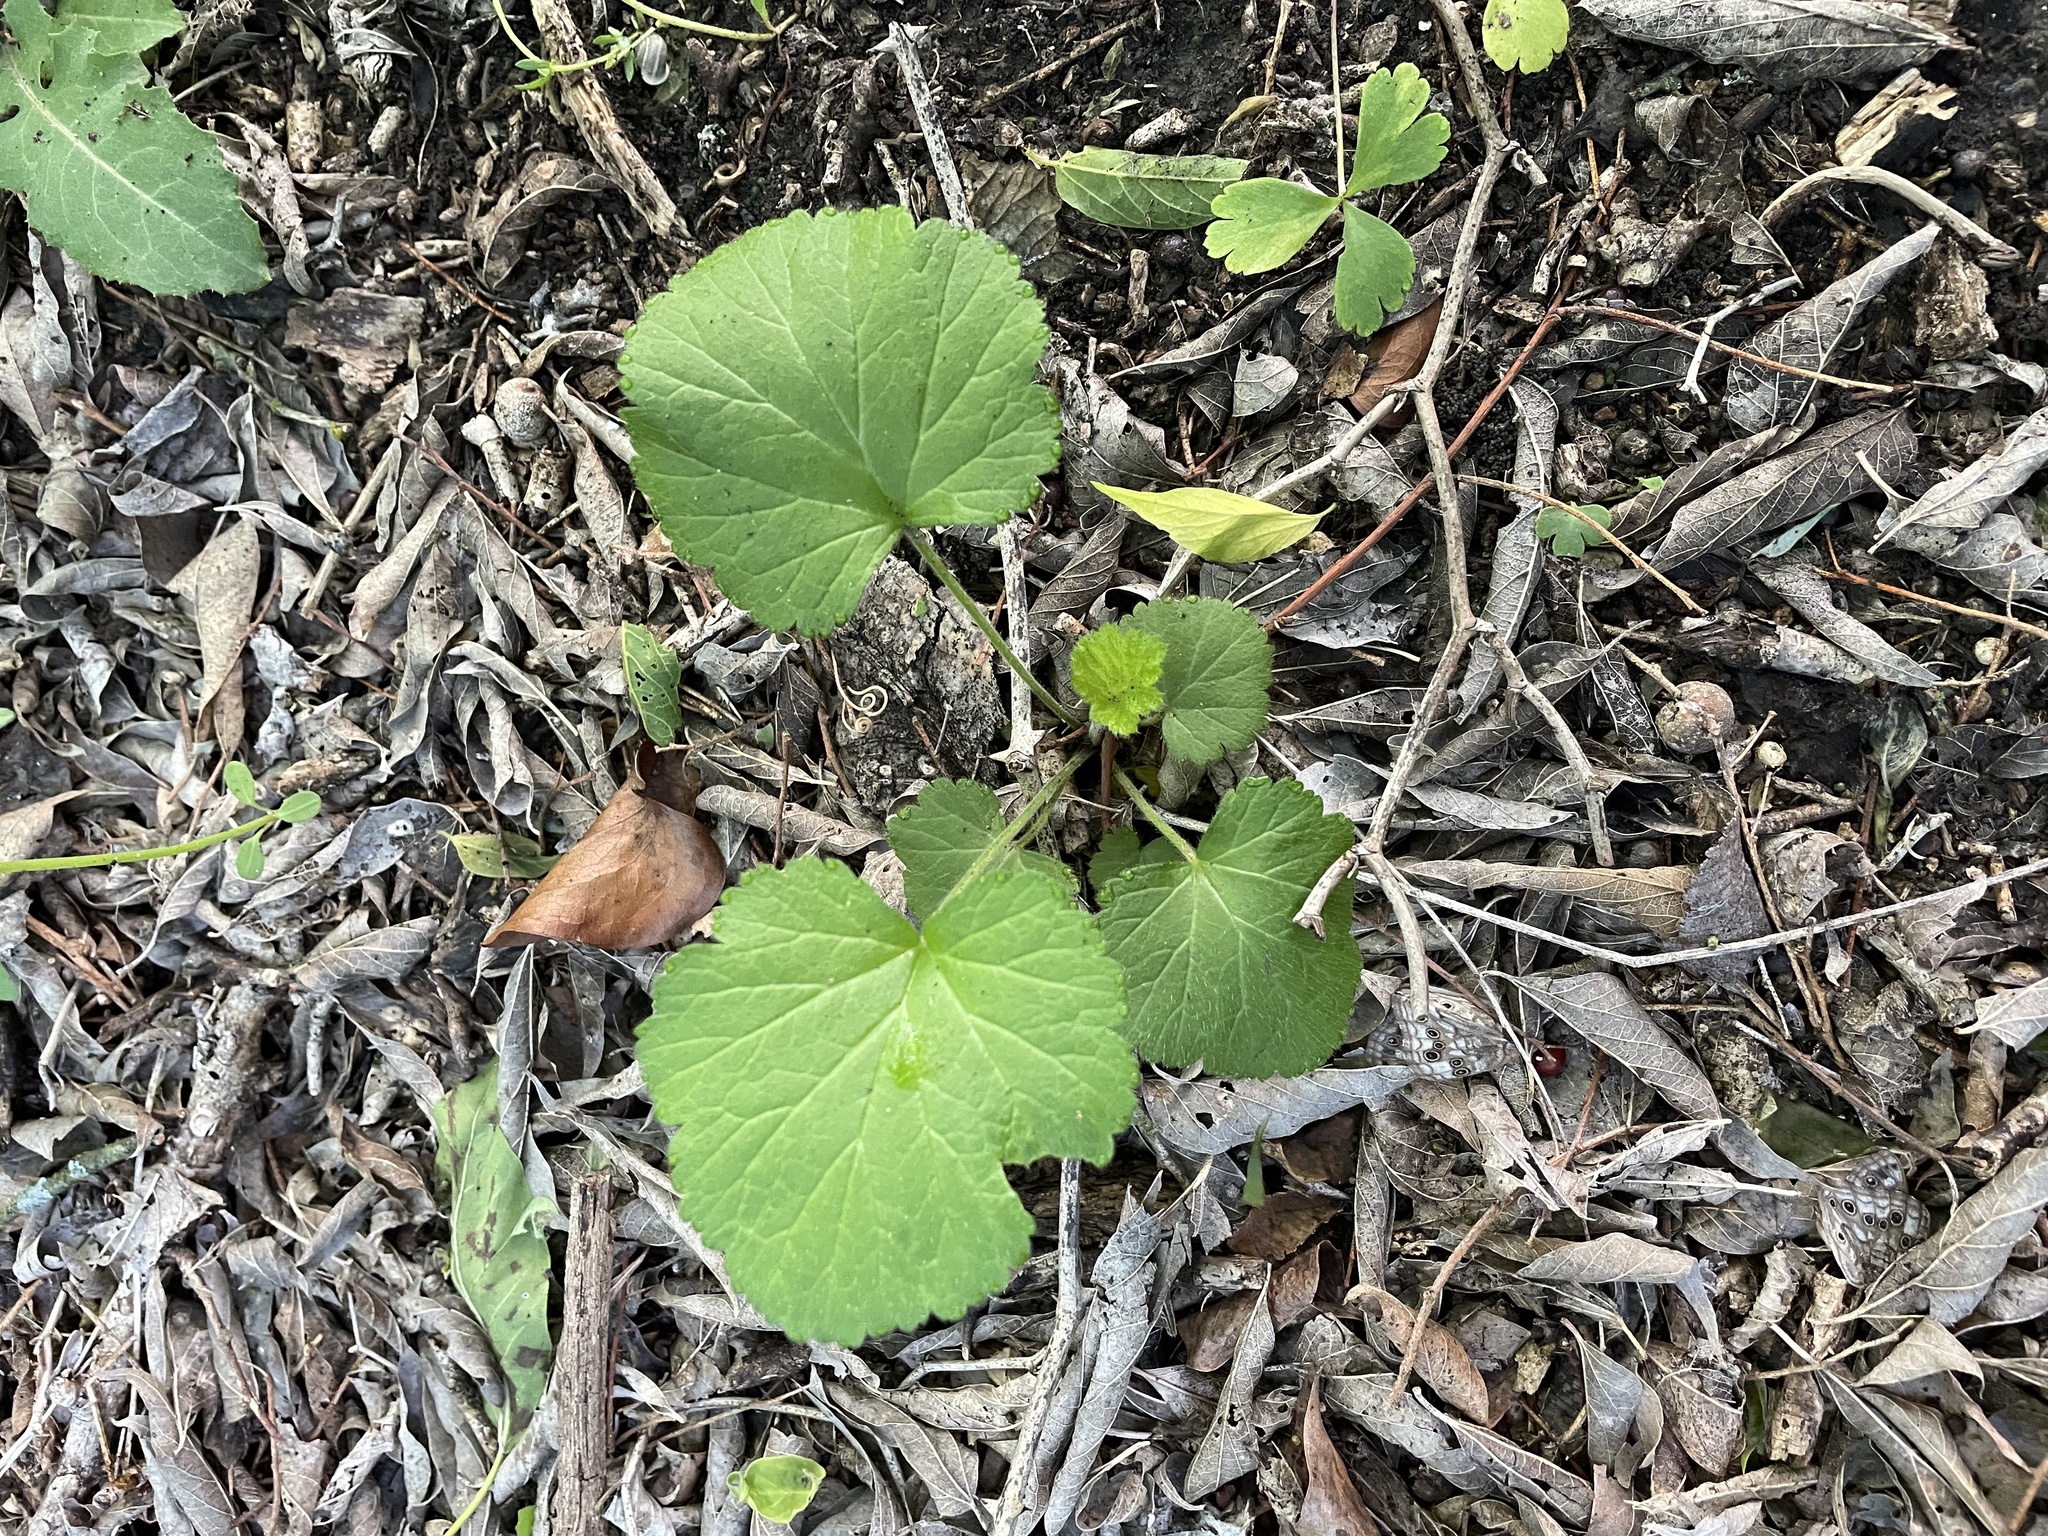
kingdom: Plantae
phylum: Tracheophyta
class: Magnoliopsida
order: Rosales
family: Rosaceae
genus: Geum
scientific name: Geum canadense
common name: White avens
